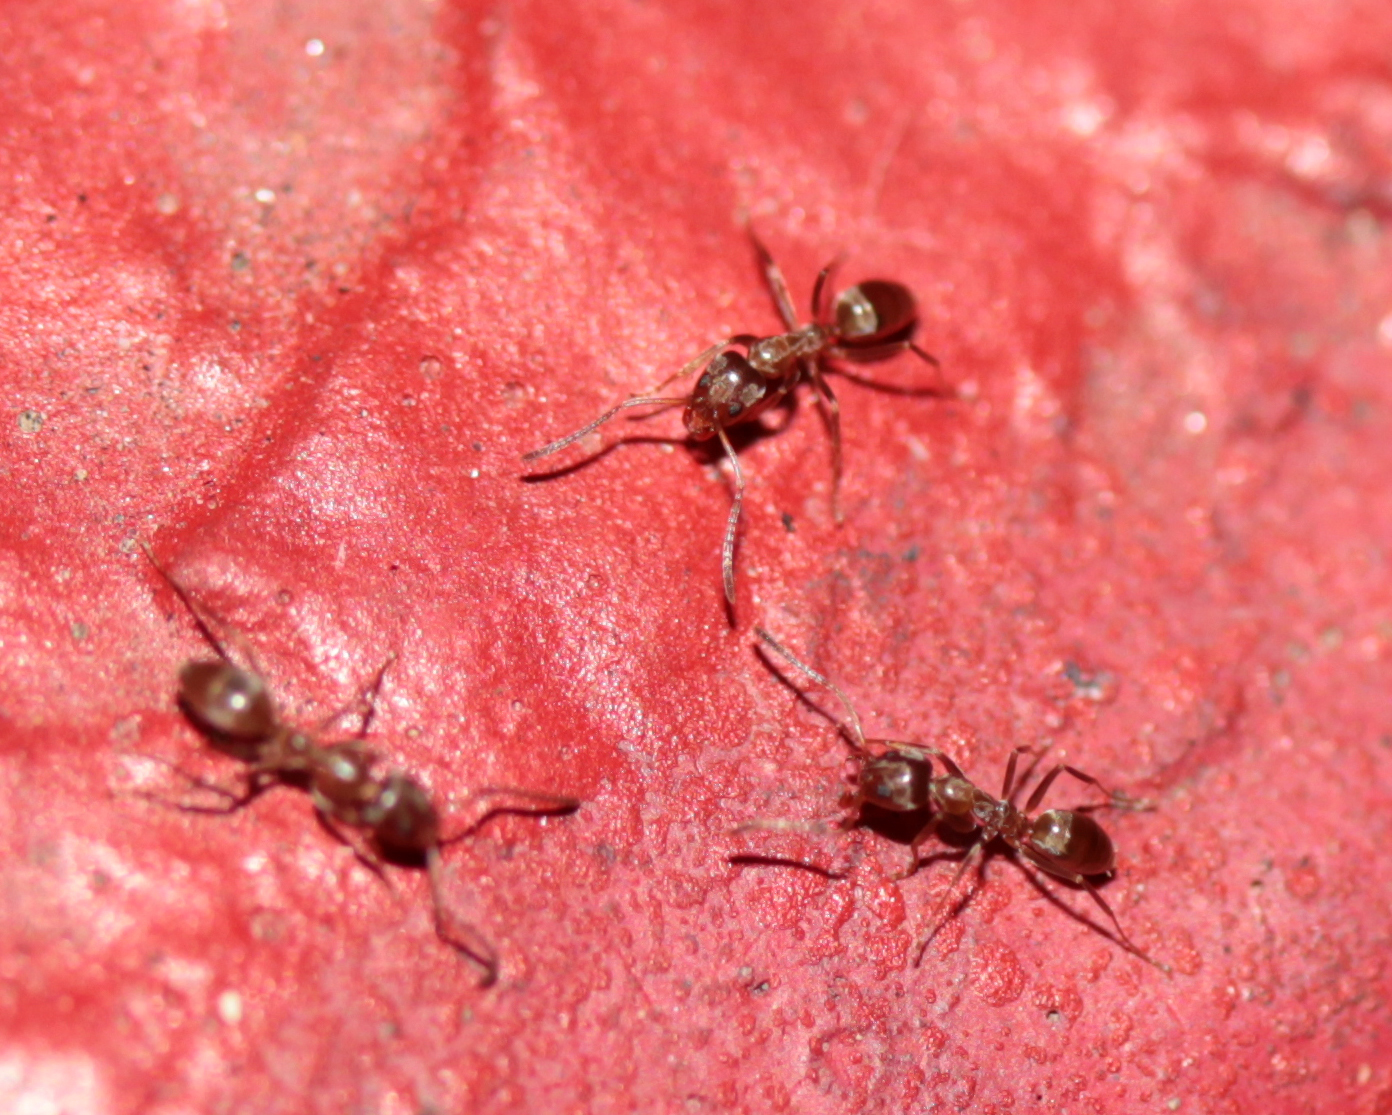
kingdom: Animalia
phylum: Arthropoda
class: Insecta
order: Hymenoptera
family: Formicidae
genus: Linepithema
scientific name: Linepithema humile
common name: Argentine ant
